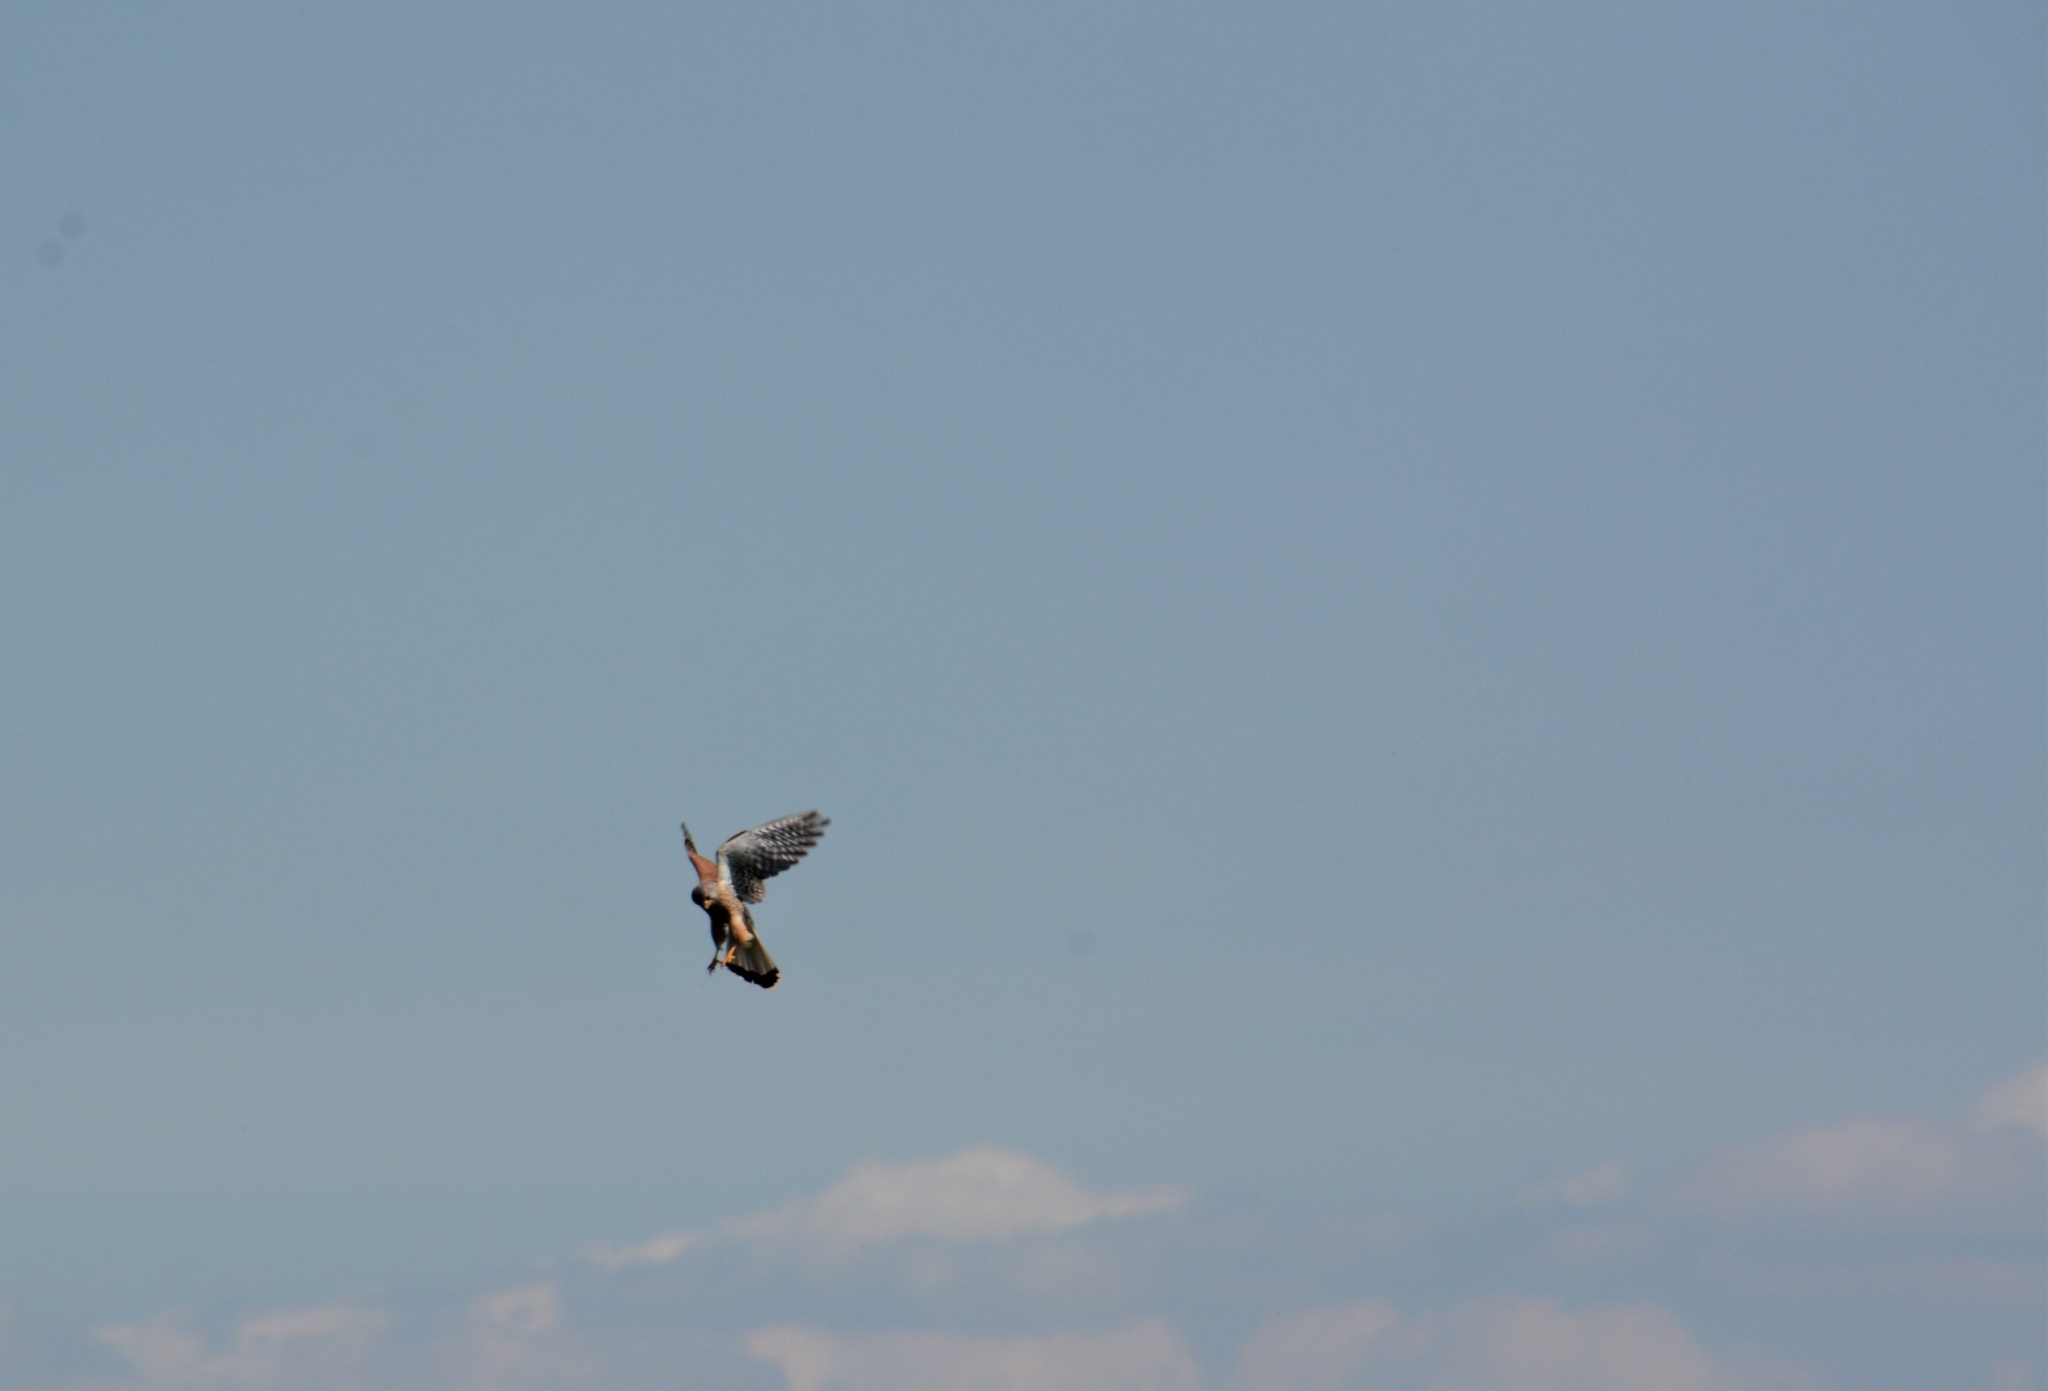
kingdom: Animalia
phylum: Chordata
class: Aves
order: Falconiformes
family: Falconidae
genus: Falco
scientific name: Falco tinnunculus
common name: Common kestrel
